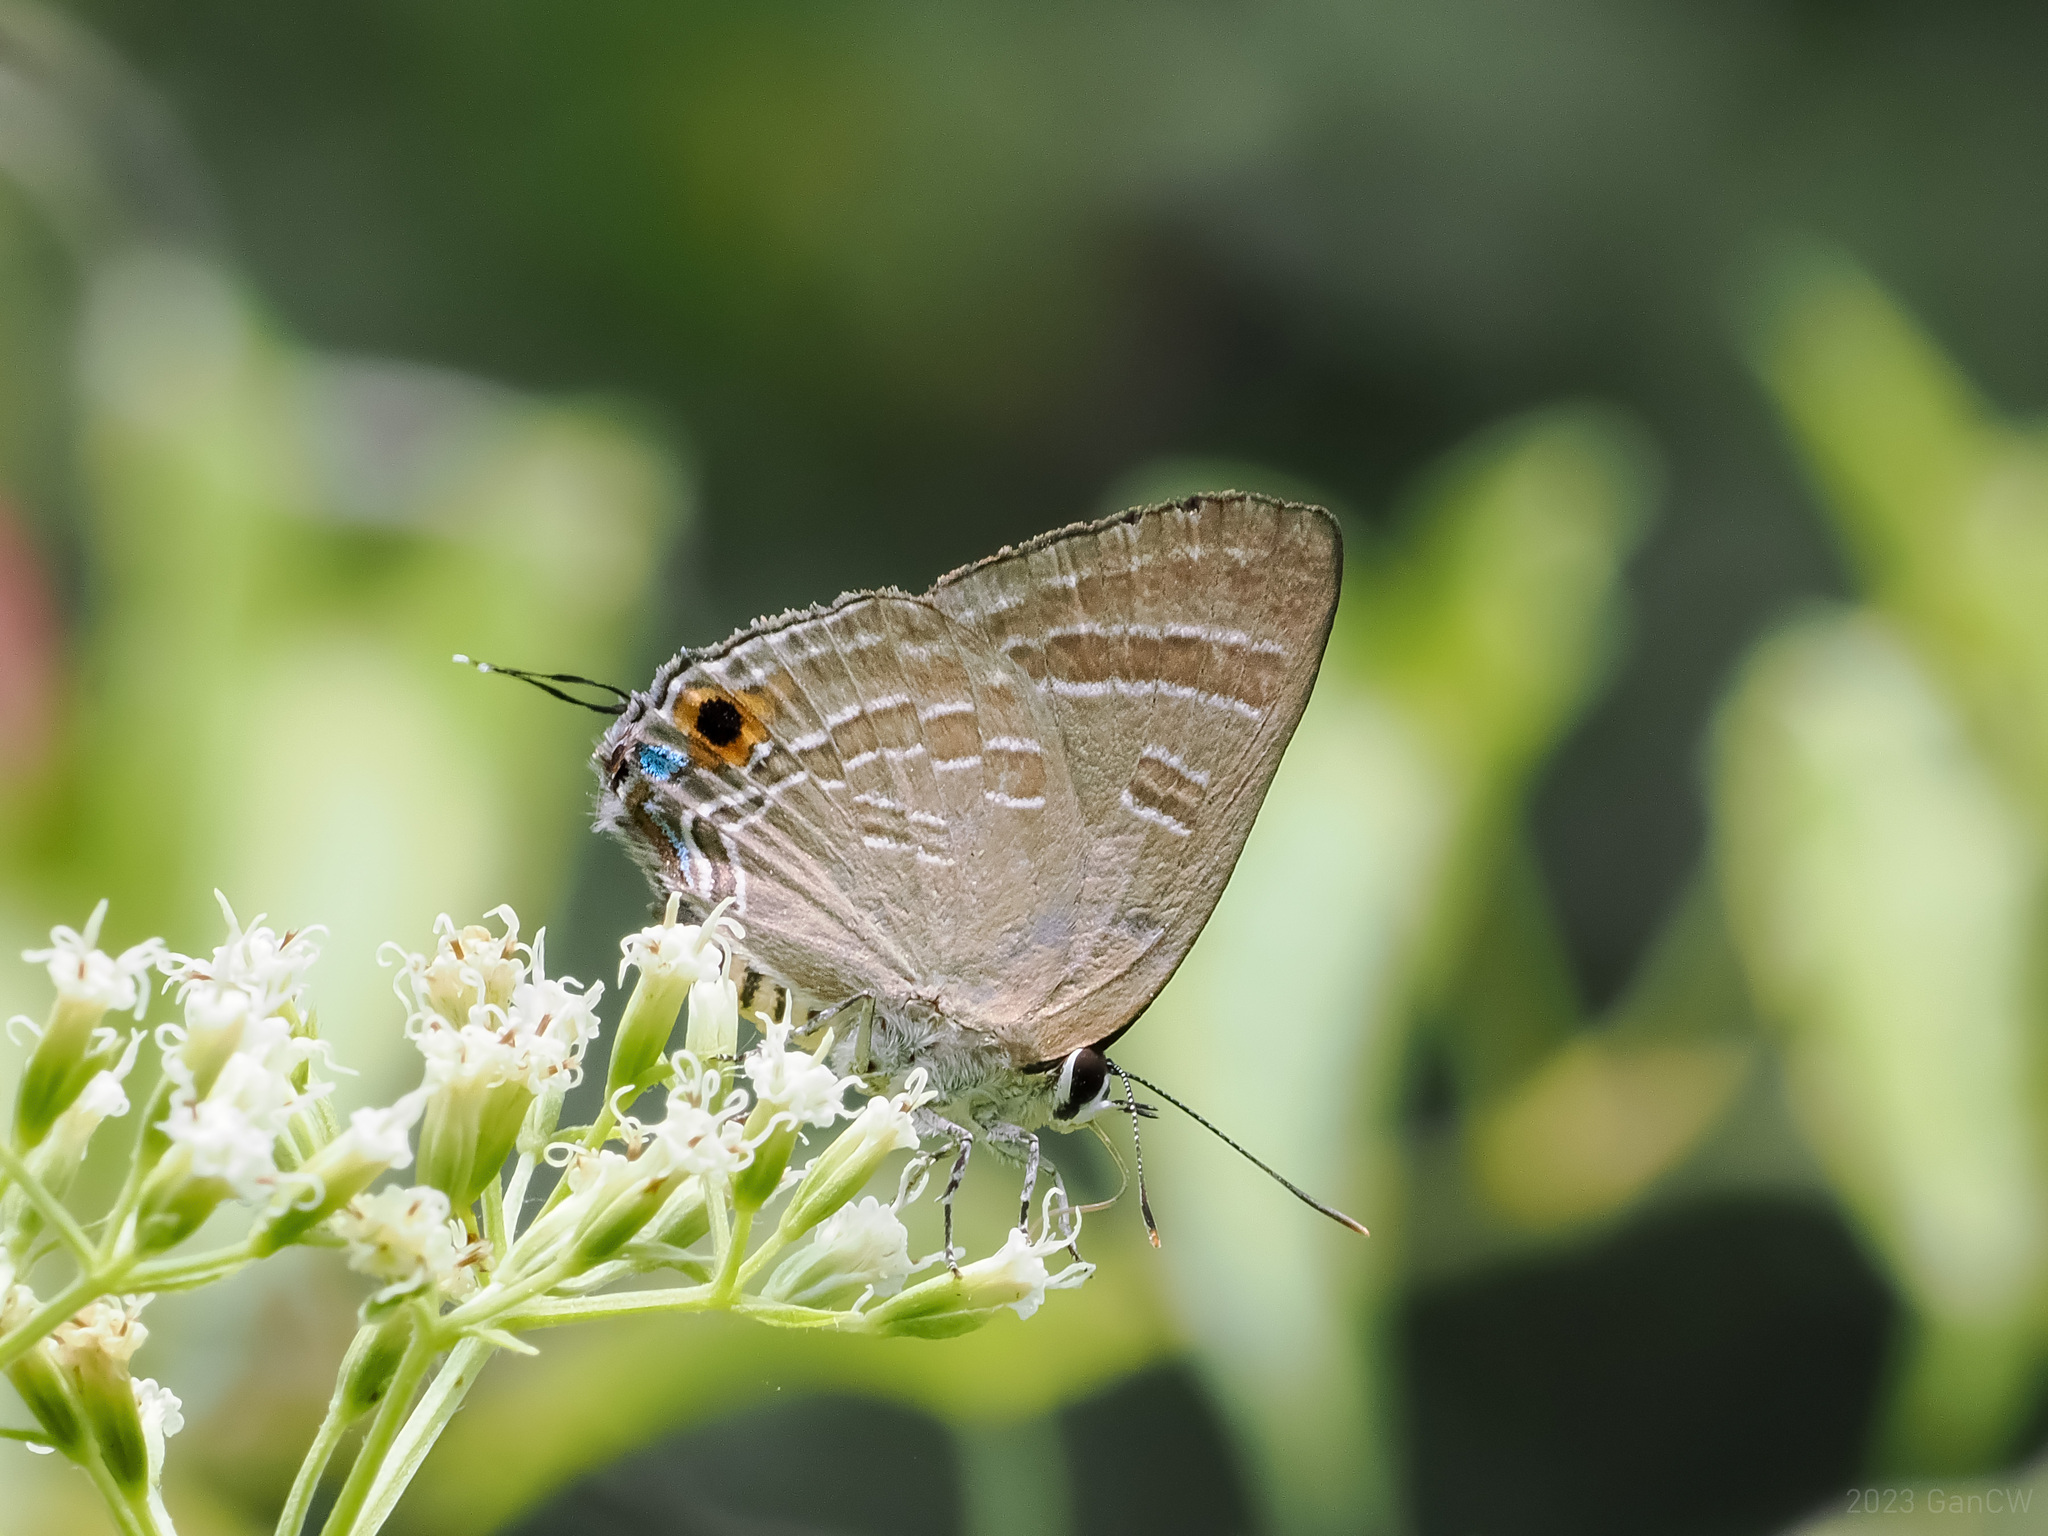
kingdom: Animalia
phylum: Arthropoda
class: Insecta
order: Lepidoptera
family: Lycaenidae
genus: Deudorix
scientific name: Deudorix epijarbas
